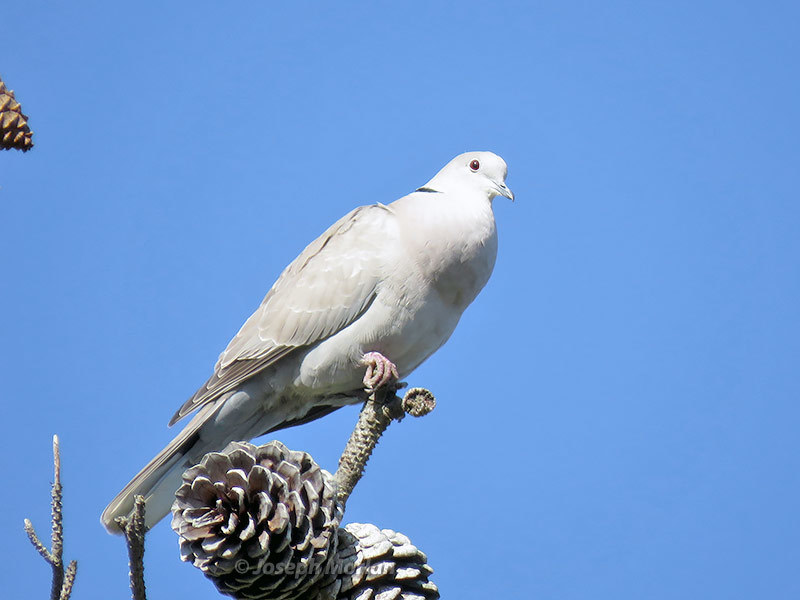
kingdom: Animalia
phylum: Chordata
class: Aves
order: Columbiformes
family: Columbidae
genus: Streptopelia
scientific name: Streptopelia decaocto
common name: Eurasian collared dove
